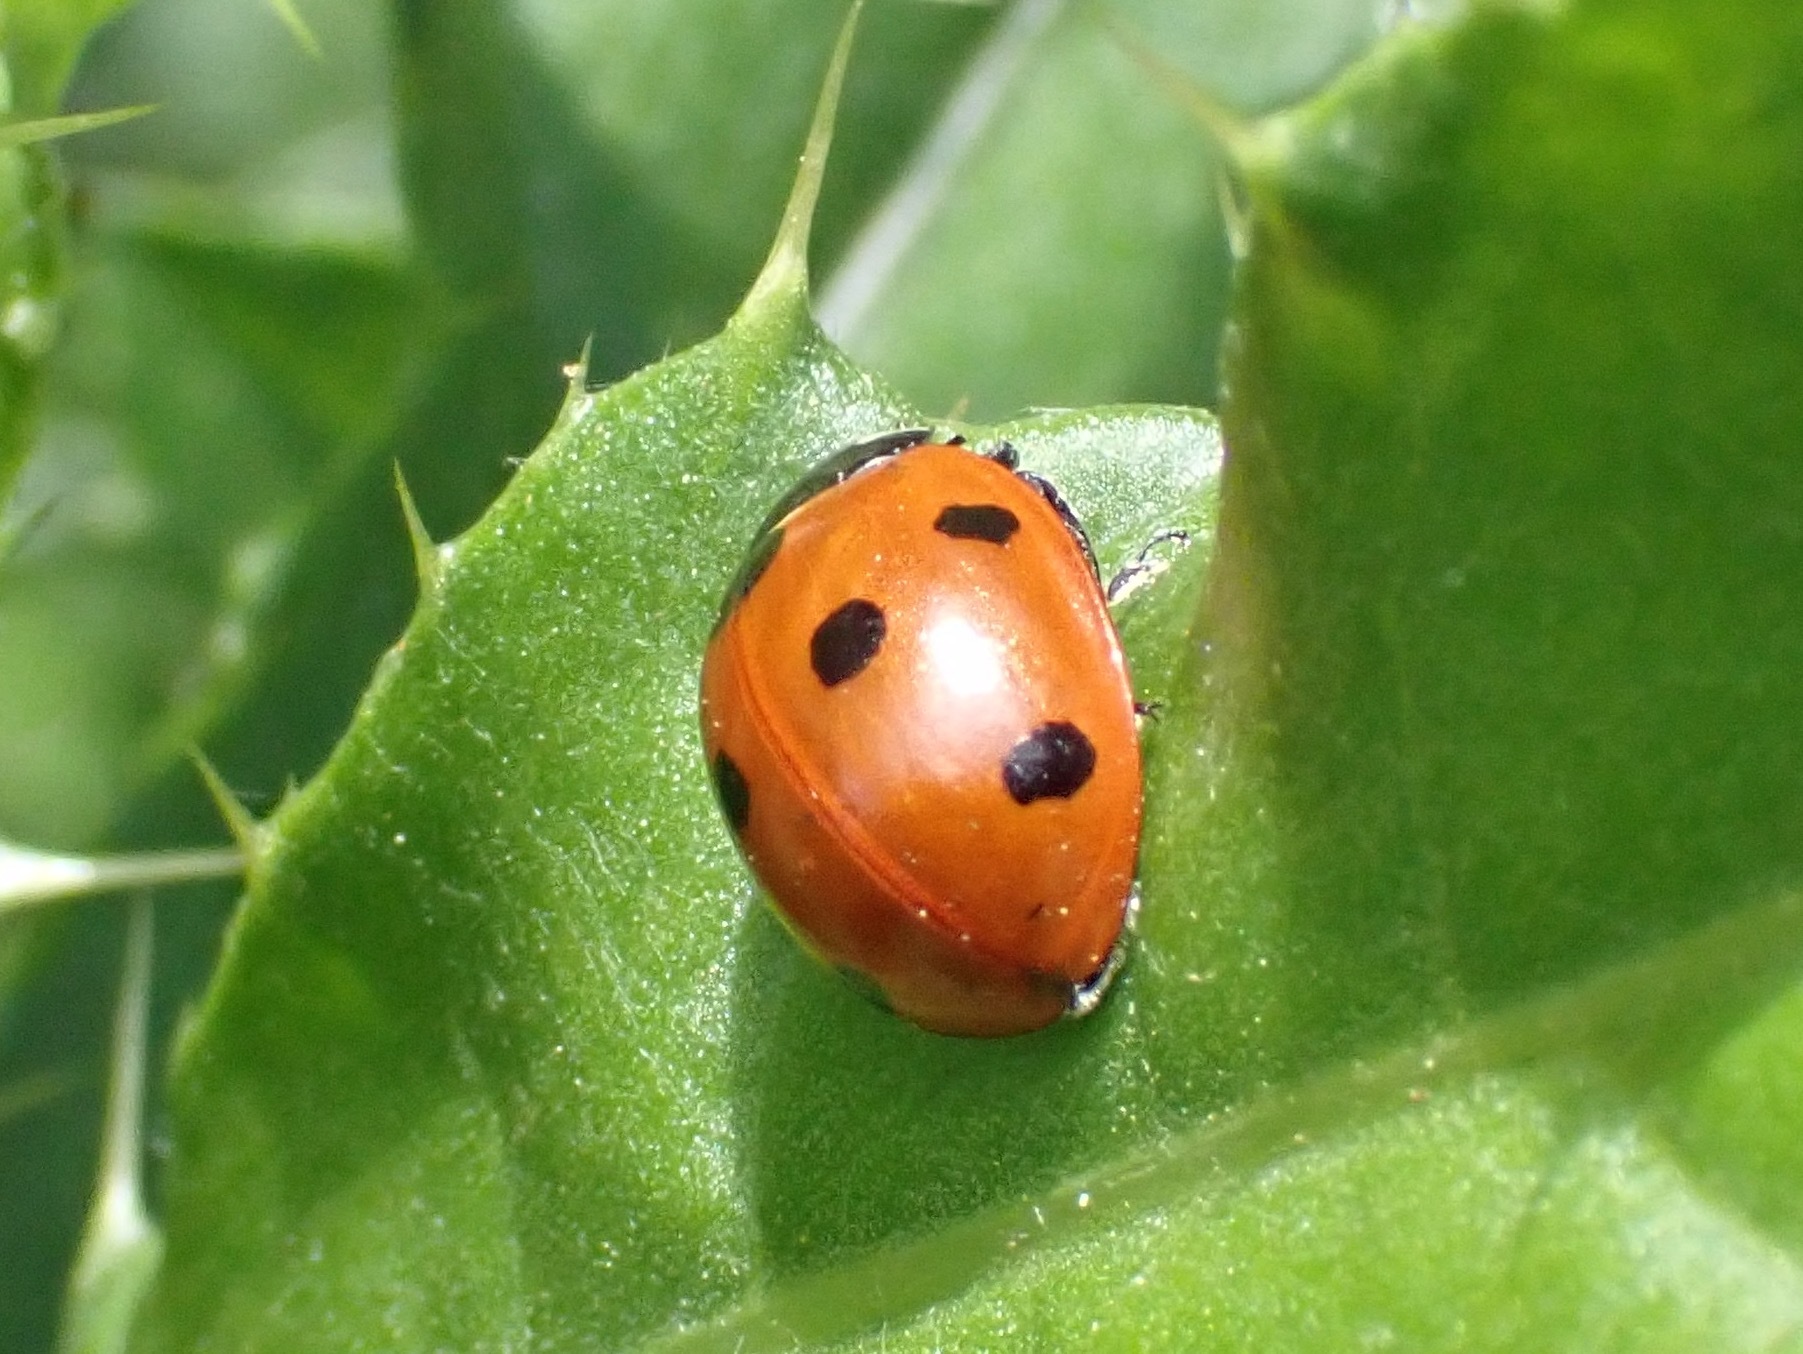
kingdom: Animalia
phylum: Arthropoda
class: Insecta
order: Coleoptera
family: Coccinellidae
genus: Coccinella
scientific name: Coccinella septempunctata
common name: Sevenspotted lady beetle
